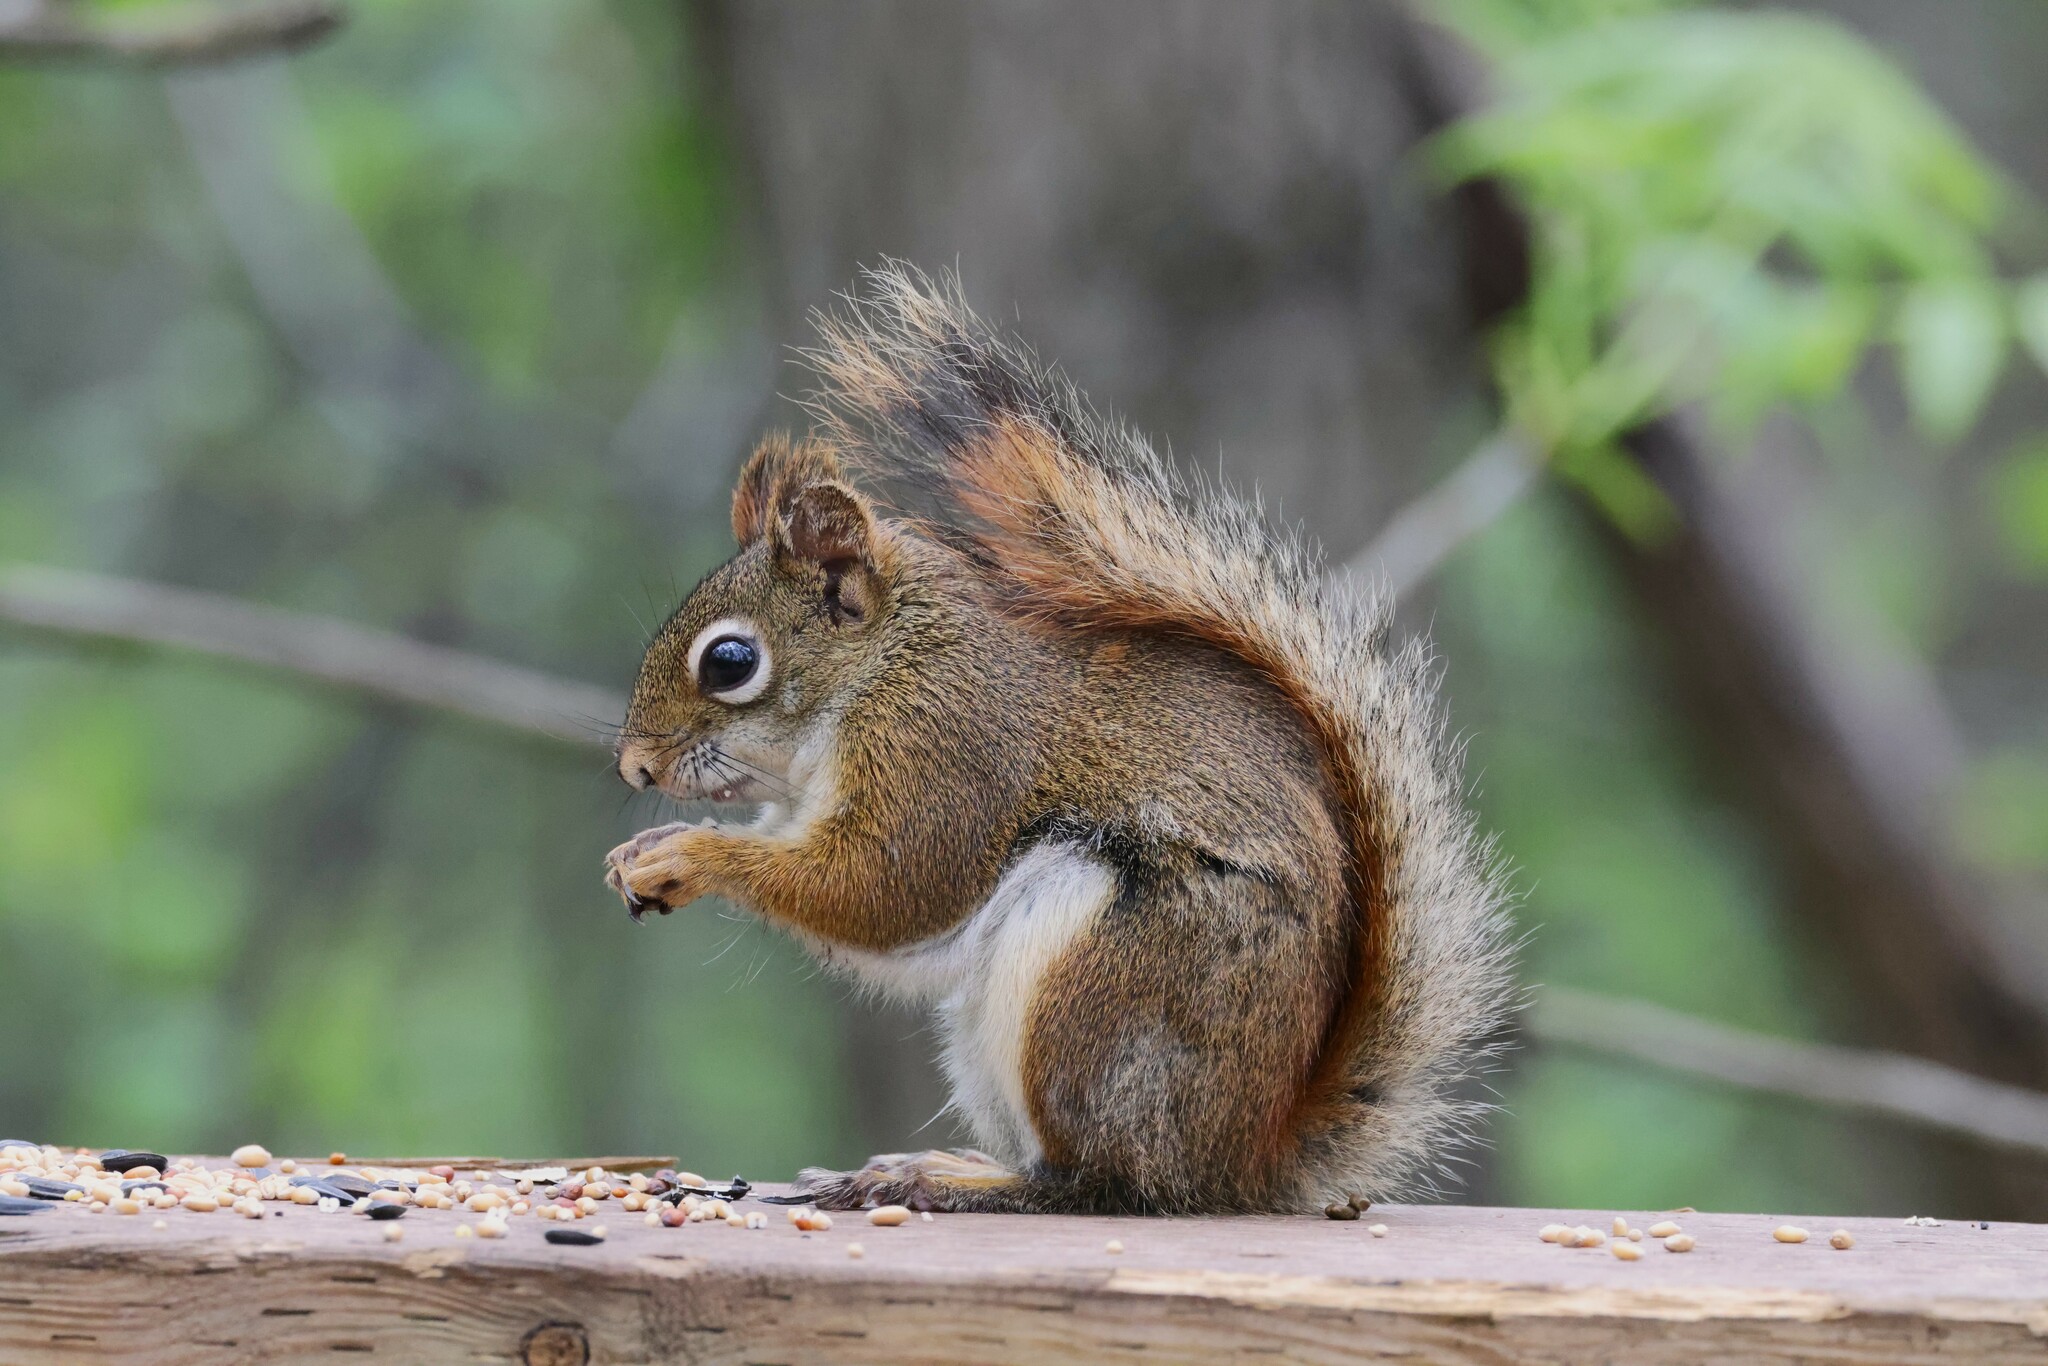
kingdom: Animalia
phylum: Chordata
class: Mammalia
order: Rodentia
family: Sciuridae
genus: Tamiasciurus
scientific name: Tamiasciurus hudsonicus
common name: Red squirrel
